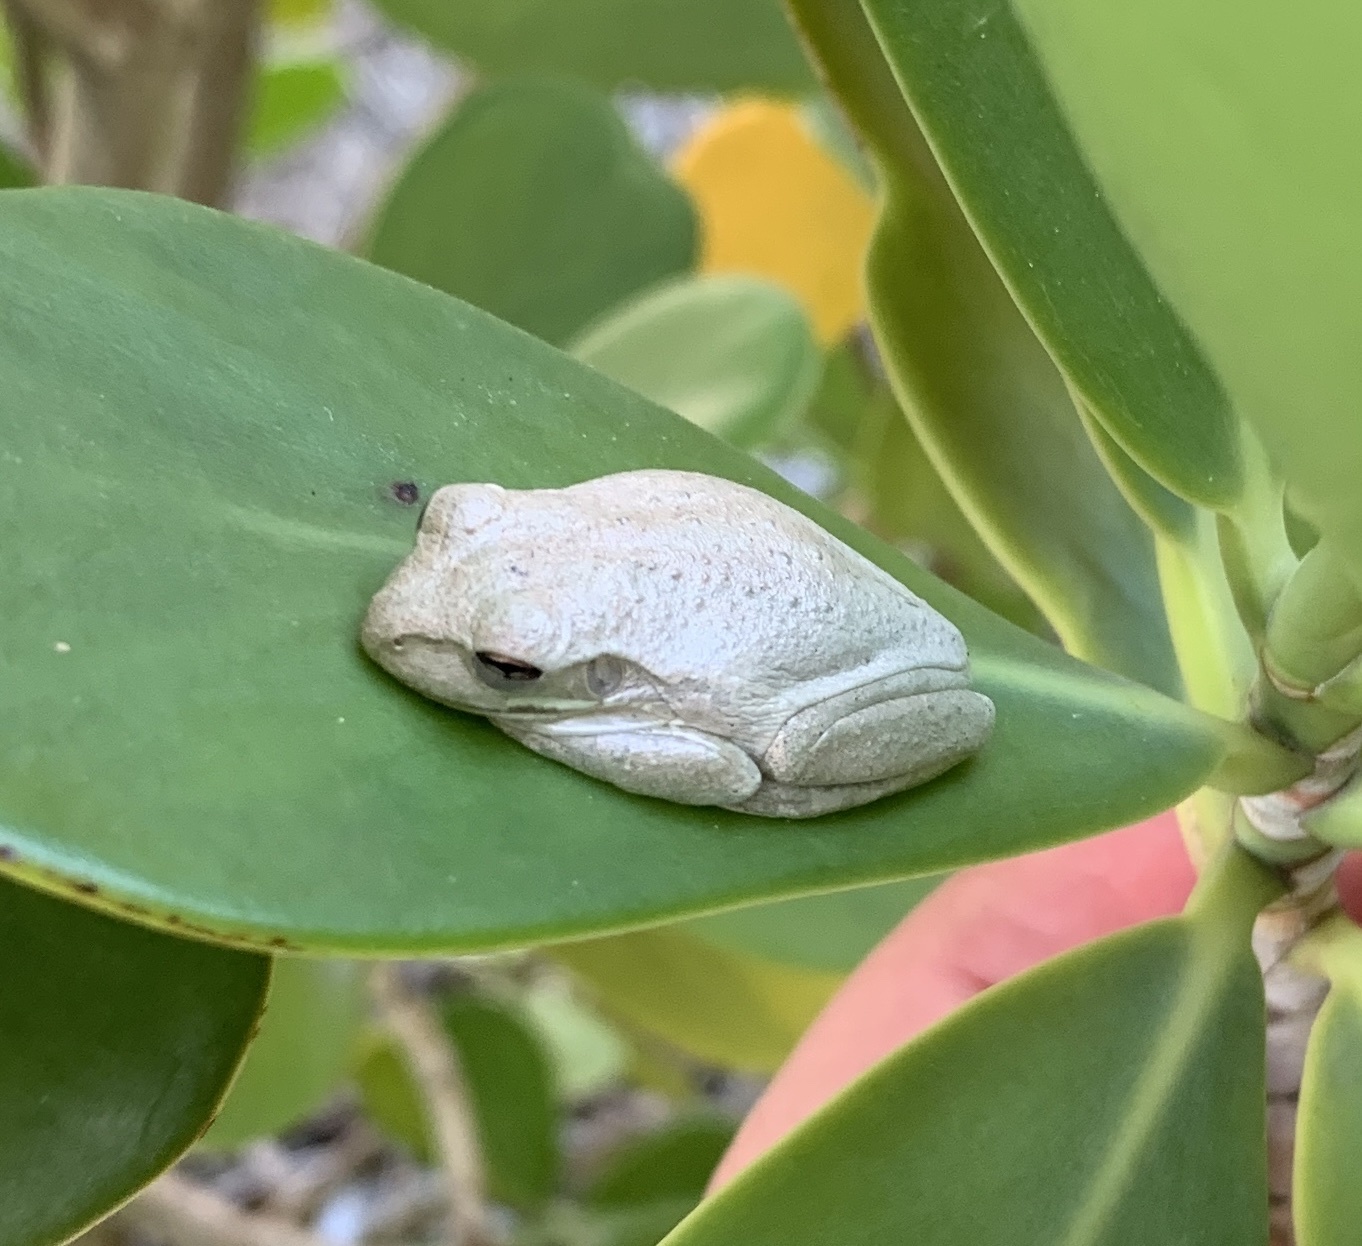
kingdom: Animalia
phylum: Chordata
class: Amphibia
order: Anura
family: Hylidae
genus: Osteopilus
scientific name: Osteopilus septentrionalis
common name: Cuban treefrog
